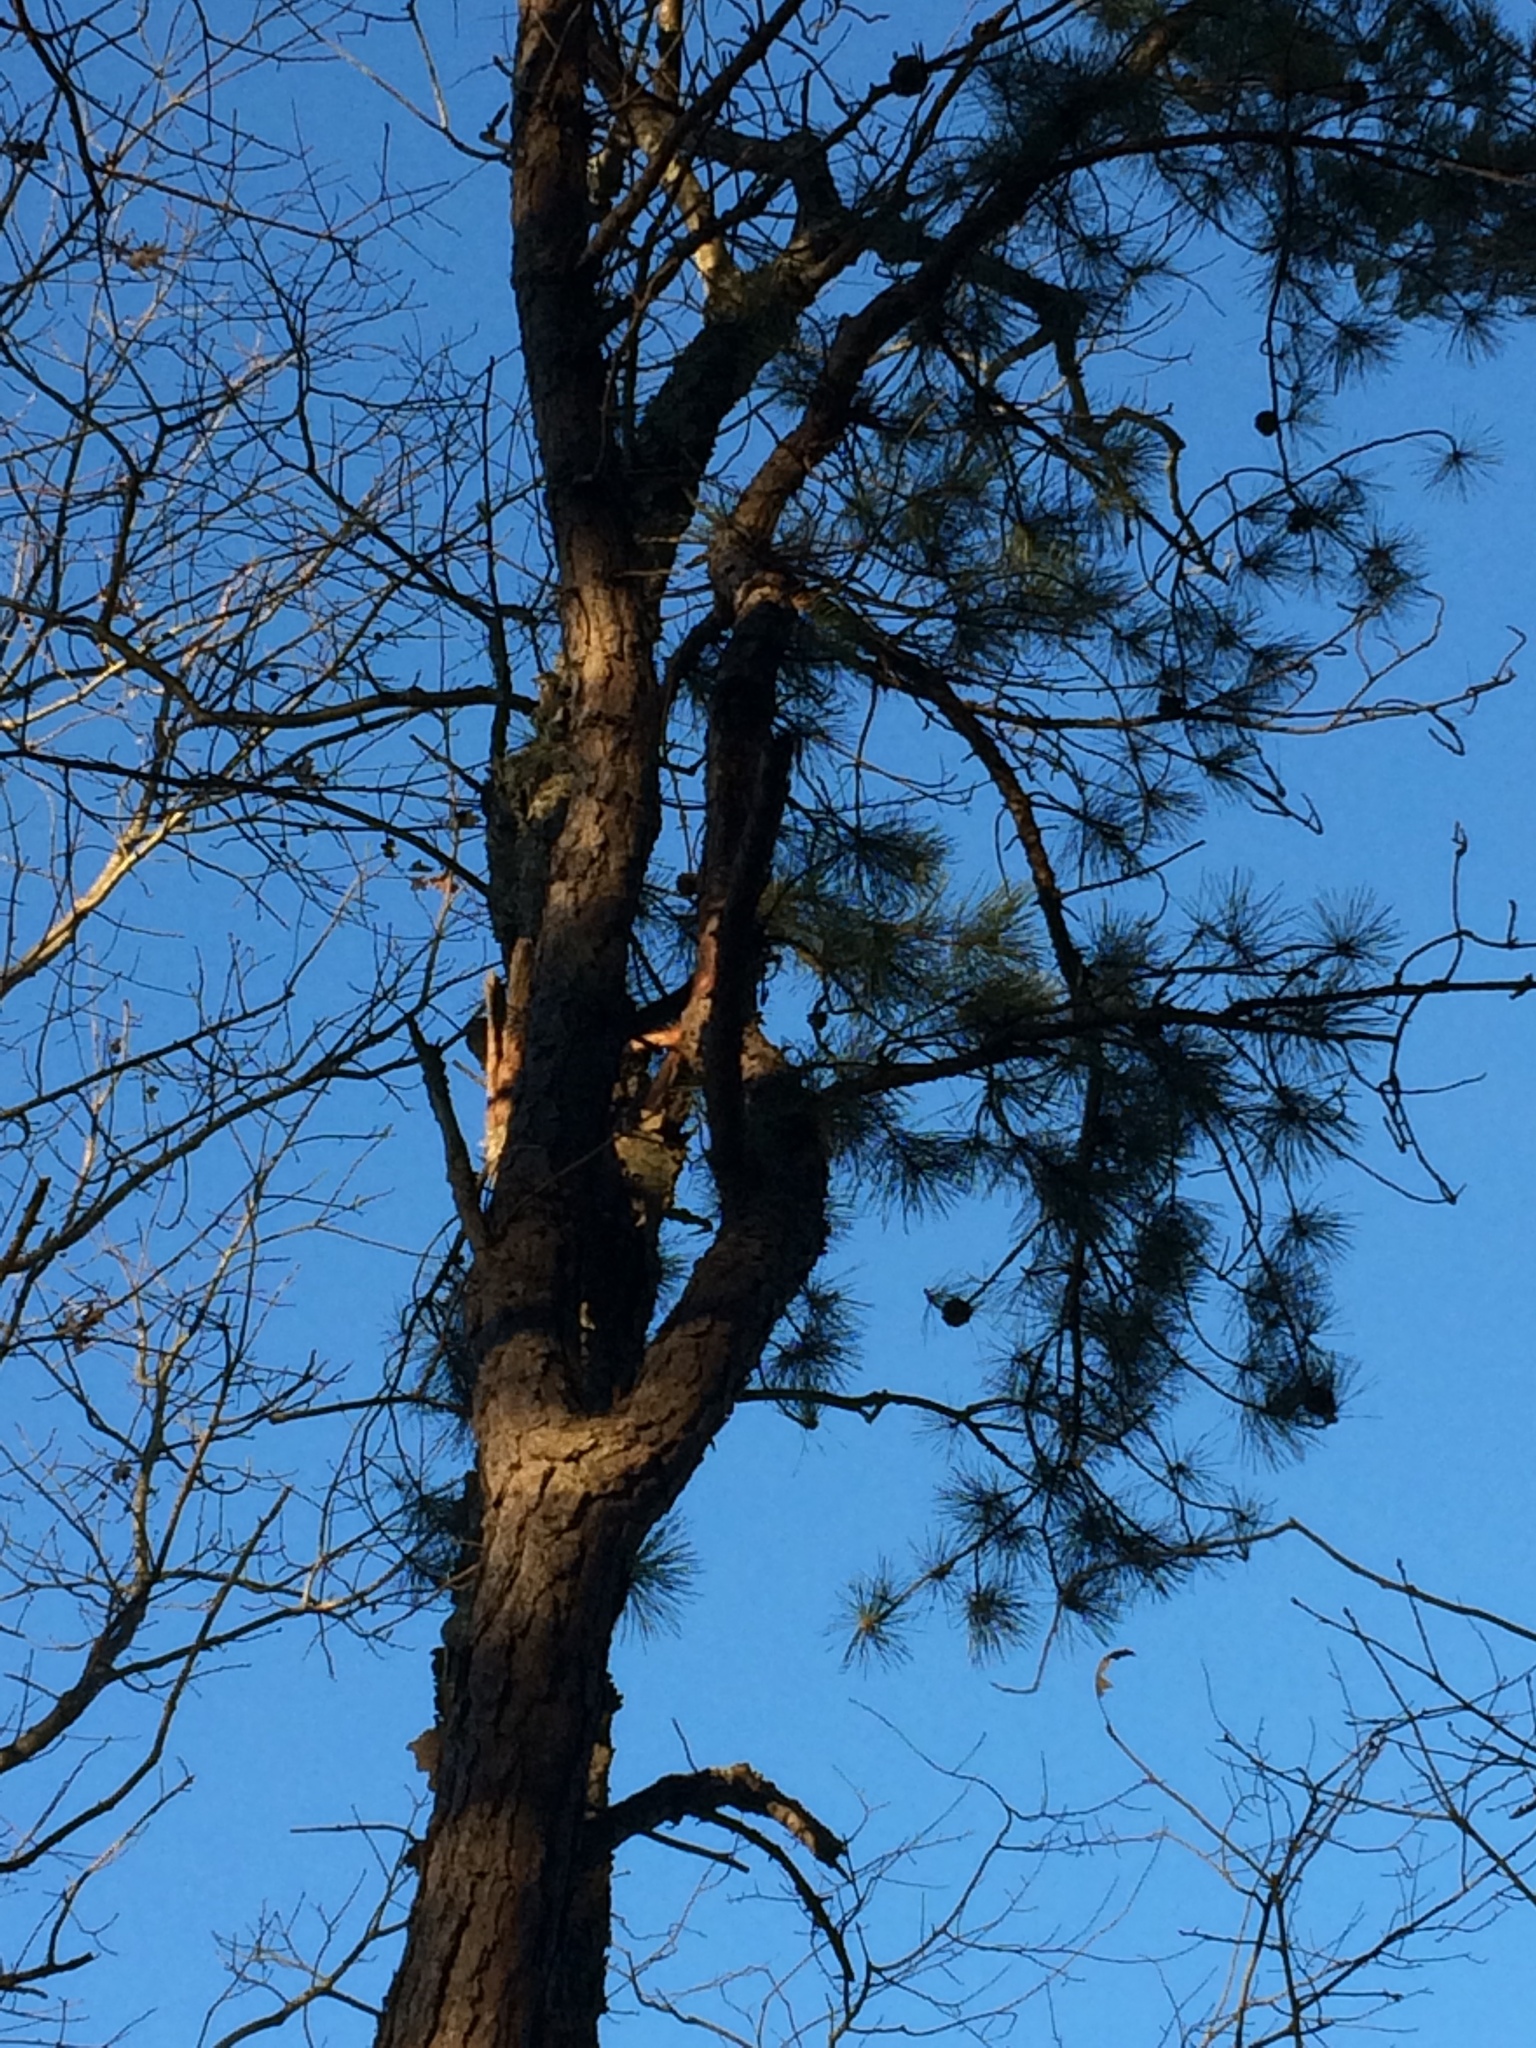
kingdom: Plantae
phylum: Tracheophyta
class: Pinopsida
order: Pinales
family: Pinaceae
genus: Pinus
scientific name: Pinus rigida
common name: Pitch pine
